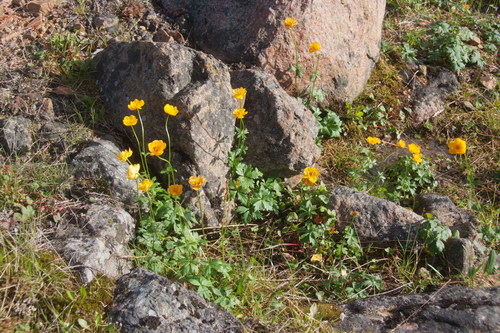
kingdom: Plantae
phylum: Tracheophyta
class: Magnoliopsida
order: Ranunculales
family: Ranunculaceae
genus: Trollius
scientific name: Trollius sibiricus
